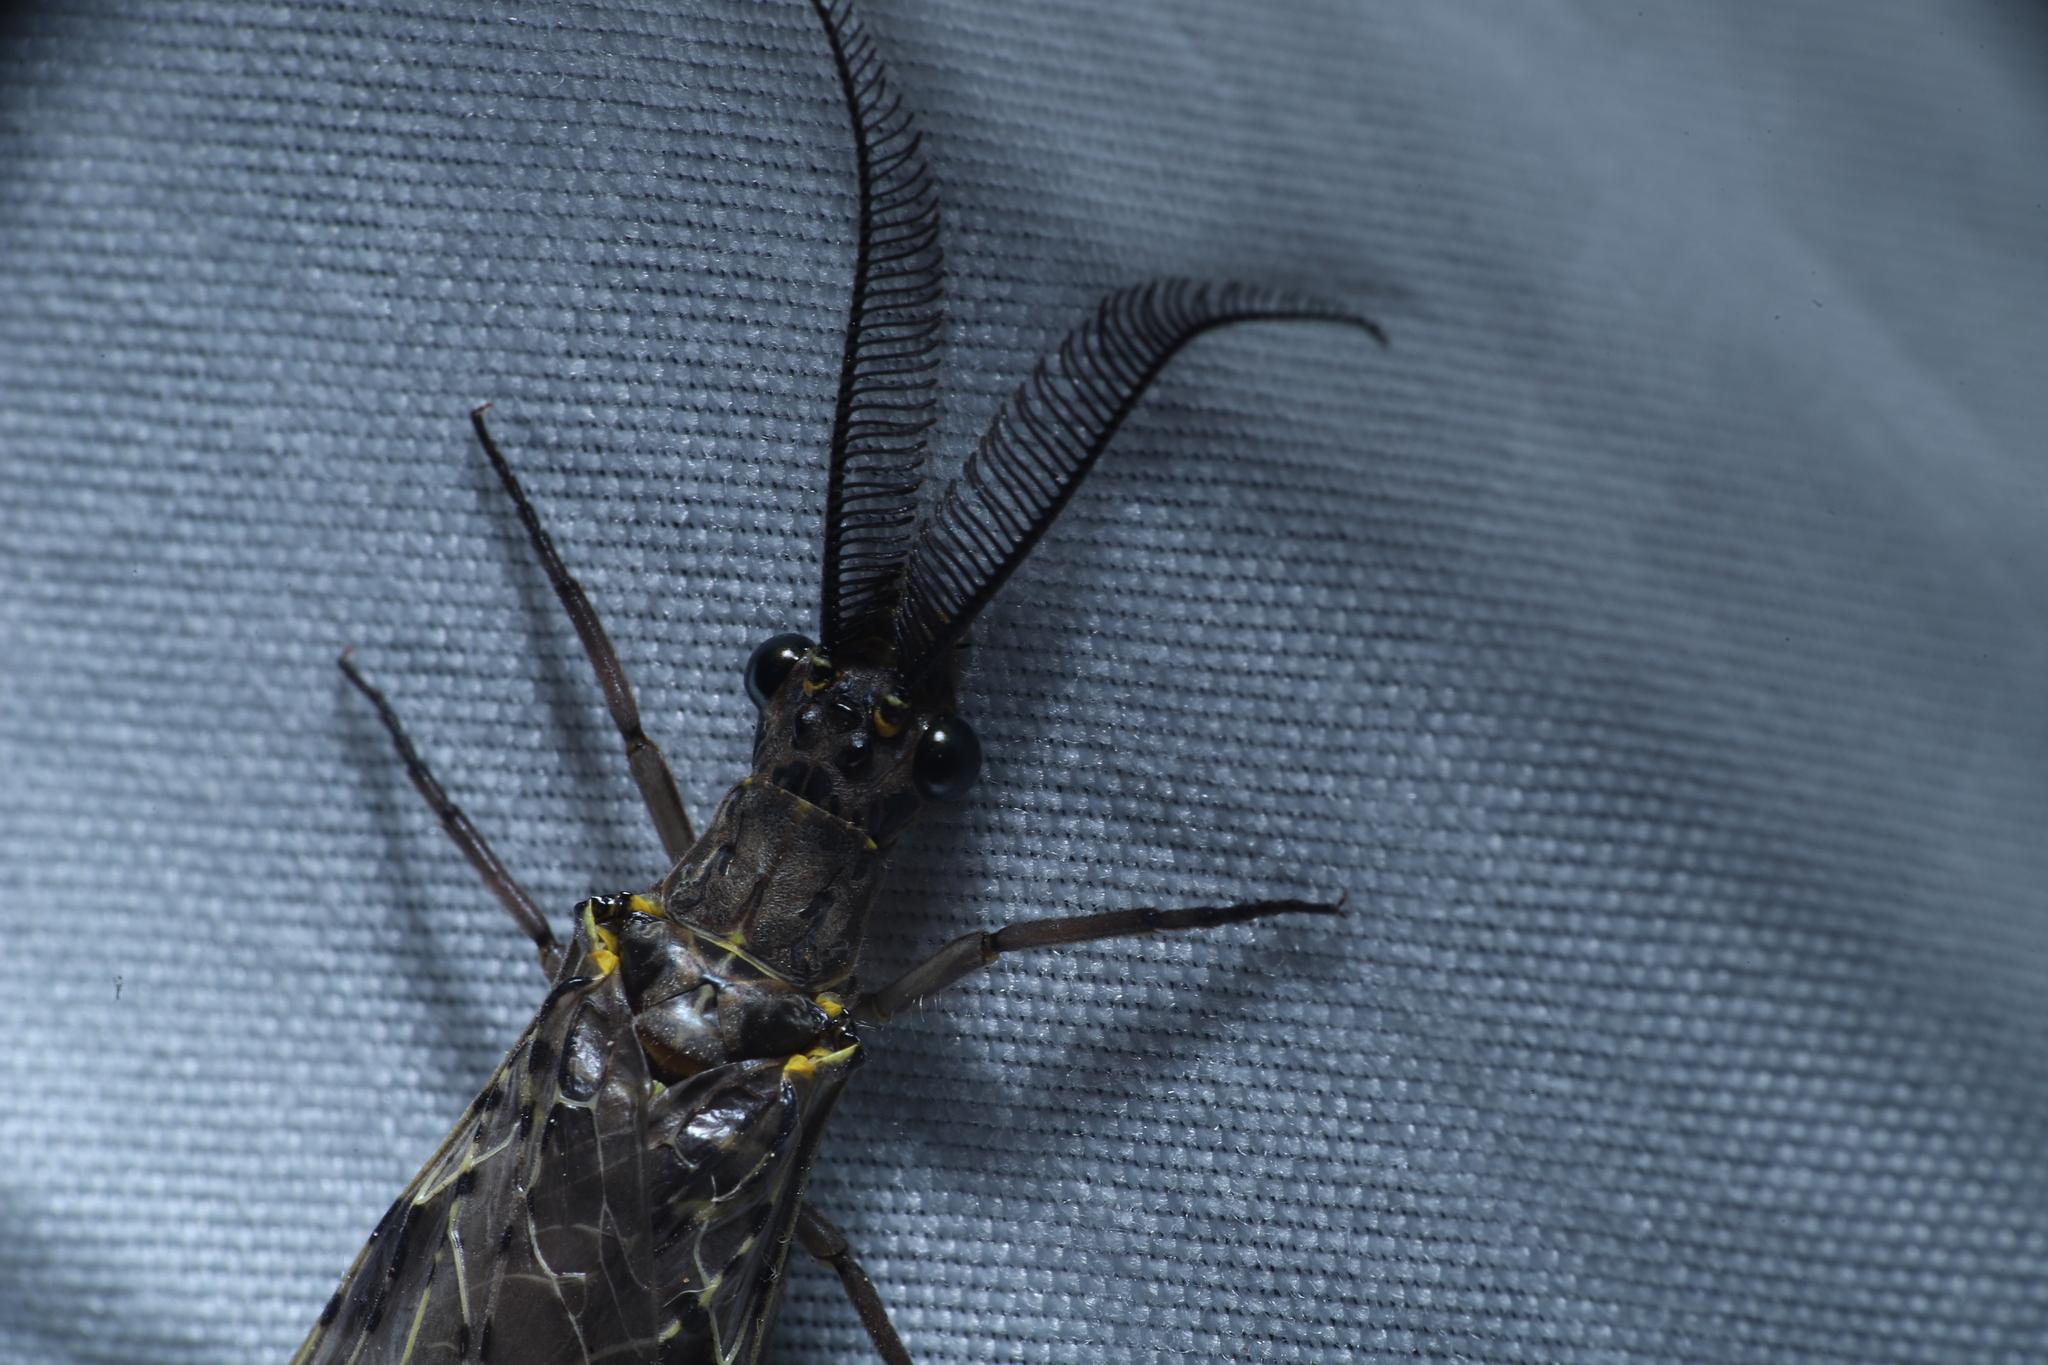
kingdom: Animalia
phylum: Arthropoda
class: Insecta
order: Megaloptera
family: Corydalidae
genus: Chauliodes
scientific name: Chauliodes rastricornis
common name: Spring fishfly
